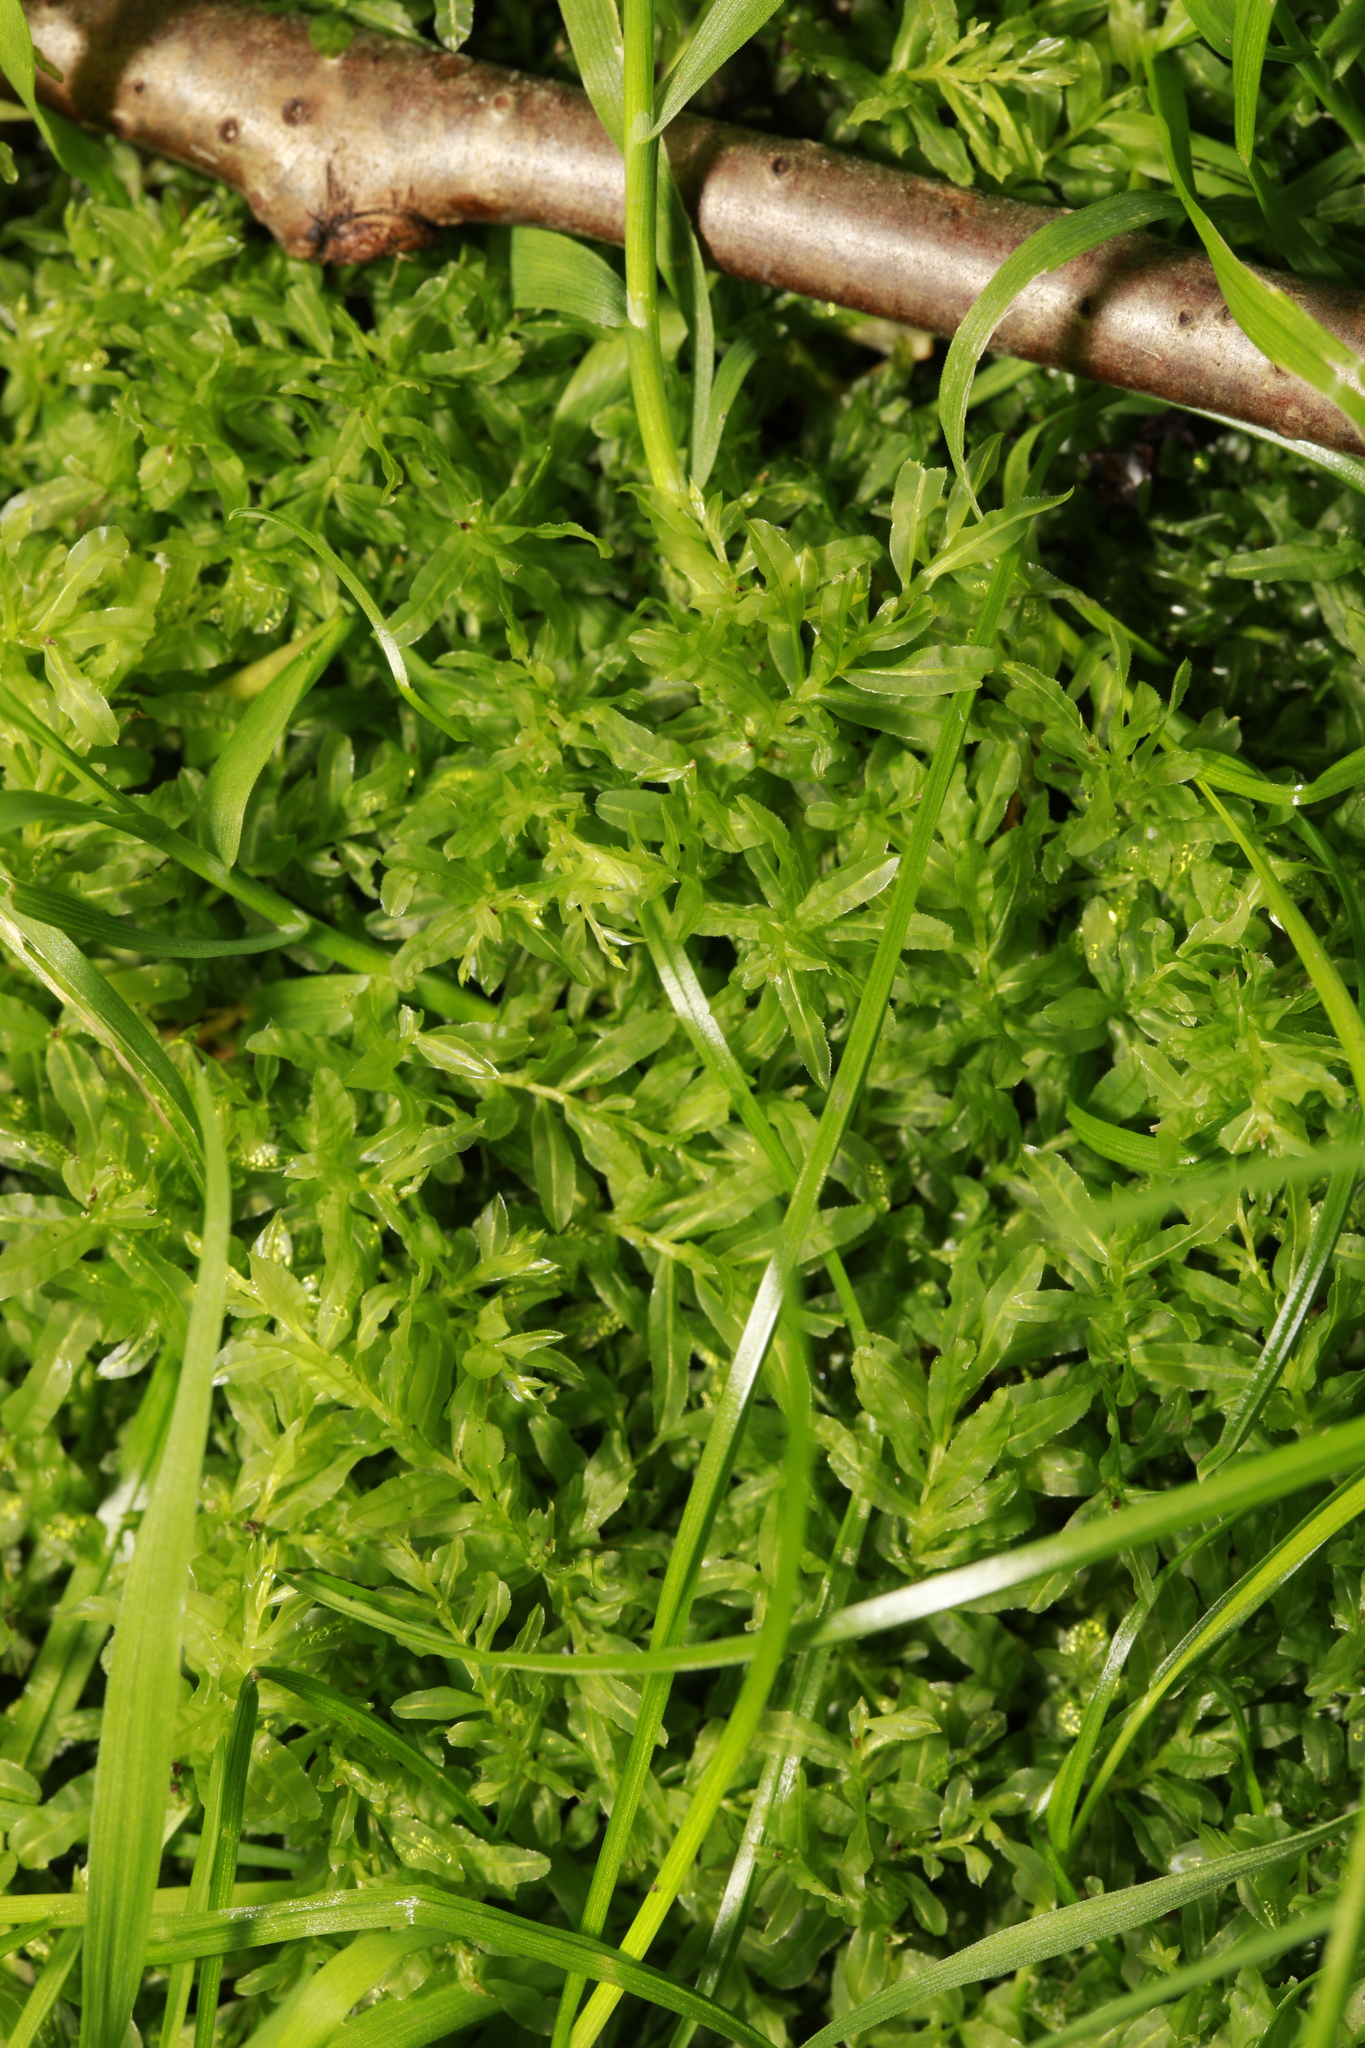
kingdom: Plantae
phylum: Bryophyta
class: Bryopsida
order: Bryales
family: Mniaceae
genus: Plagiomnium
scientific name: Plagiomnium undulatum
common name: Hart's-tongue thyme-moss
